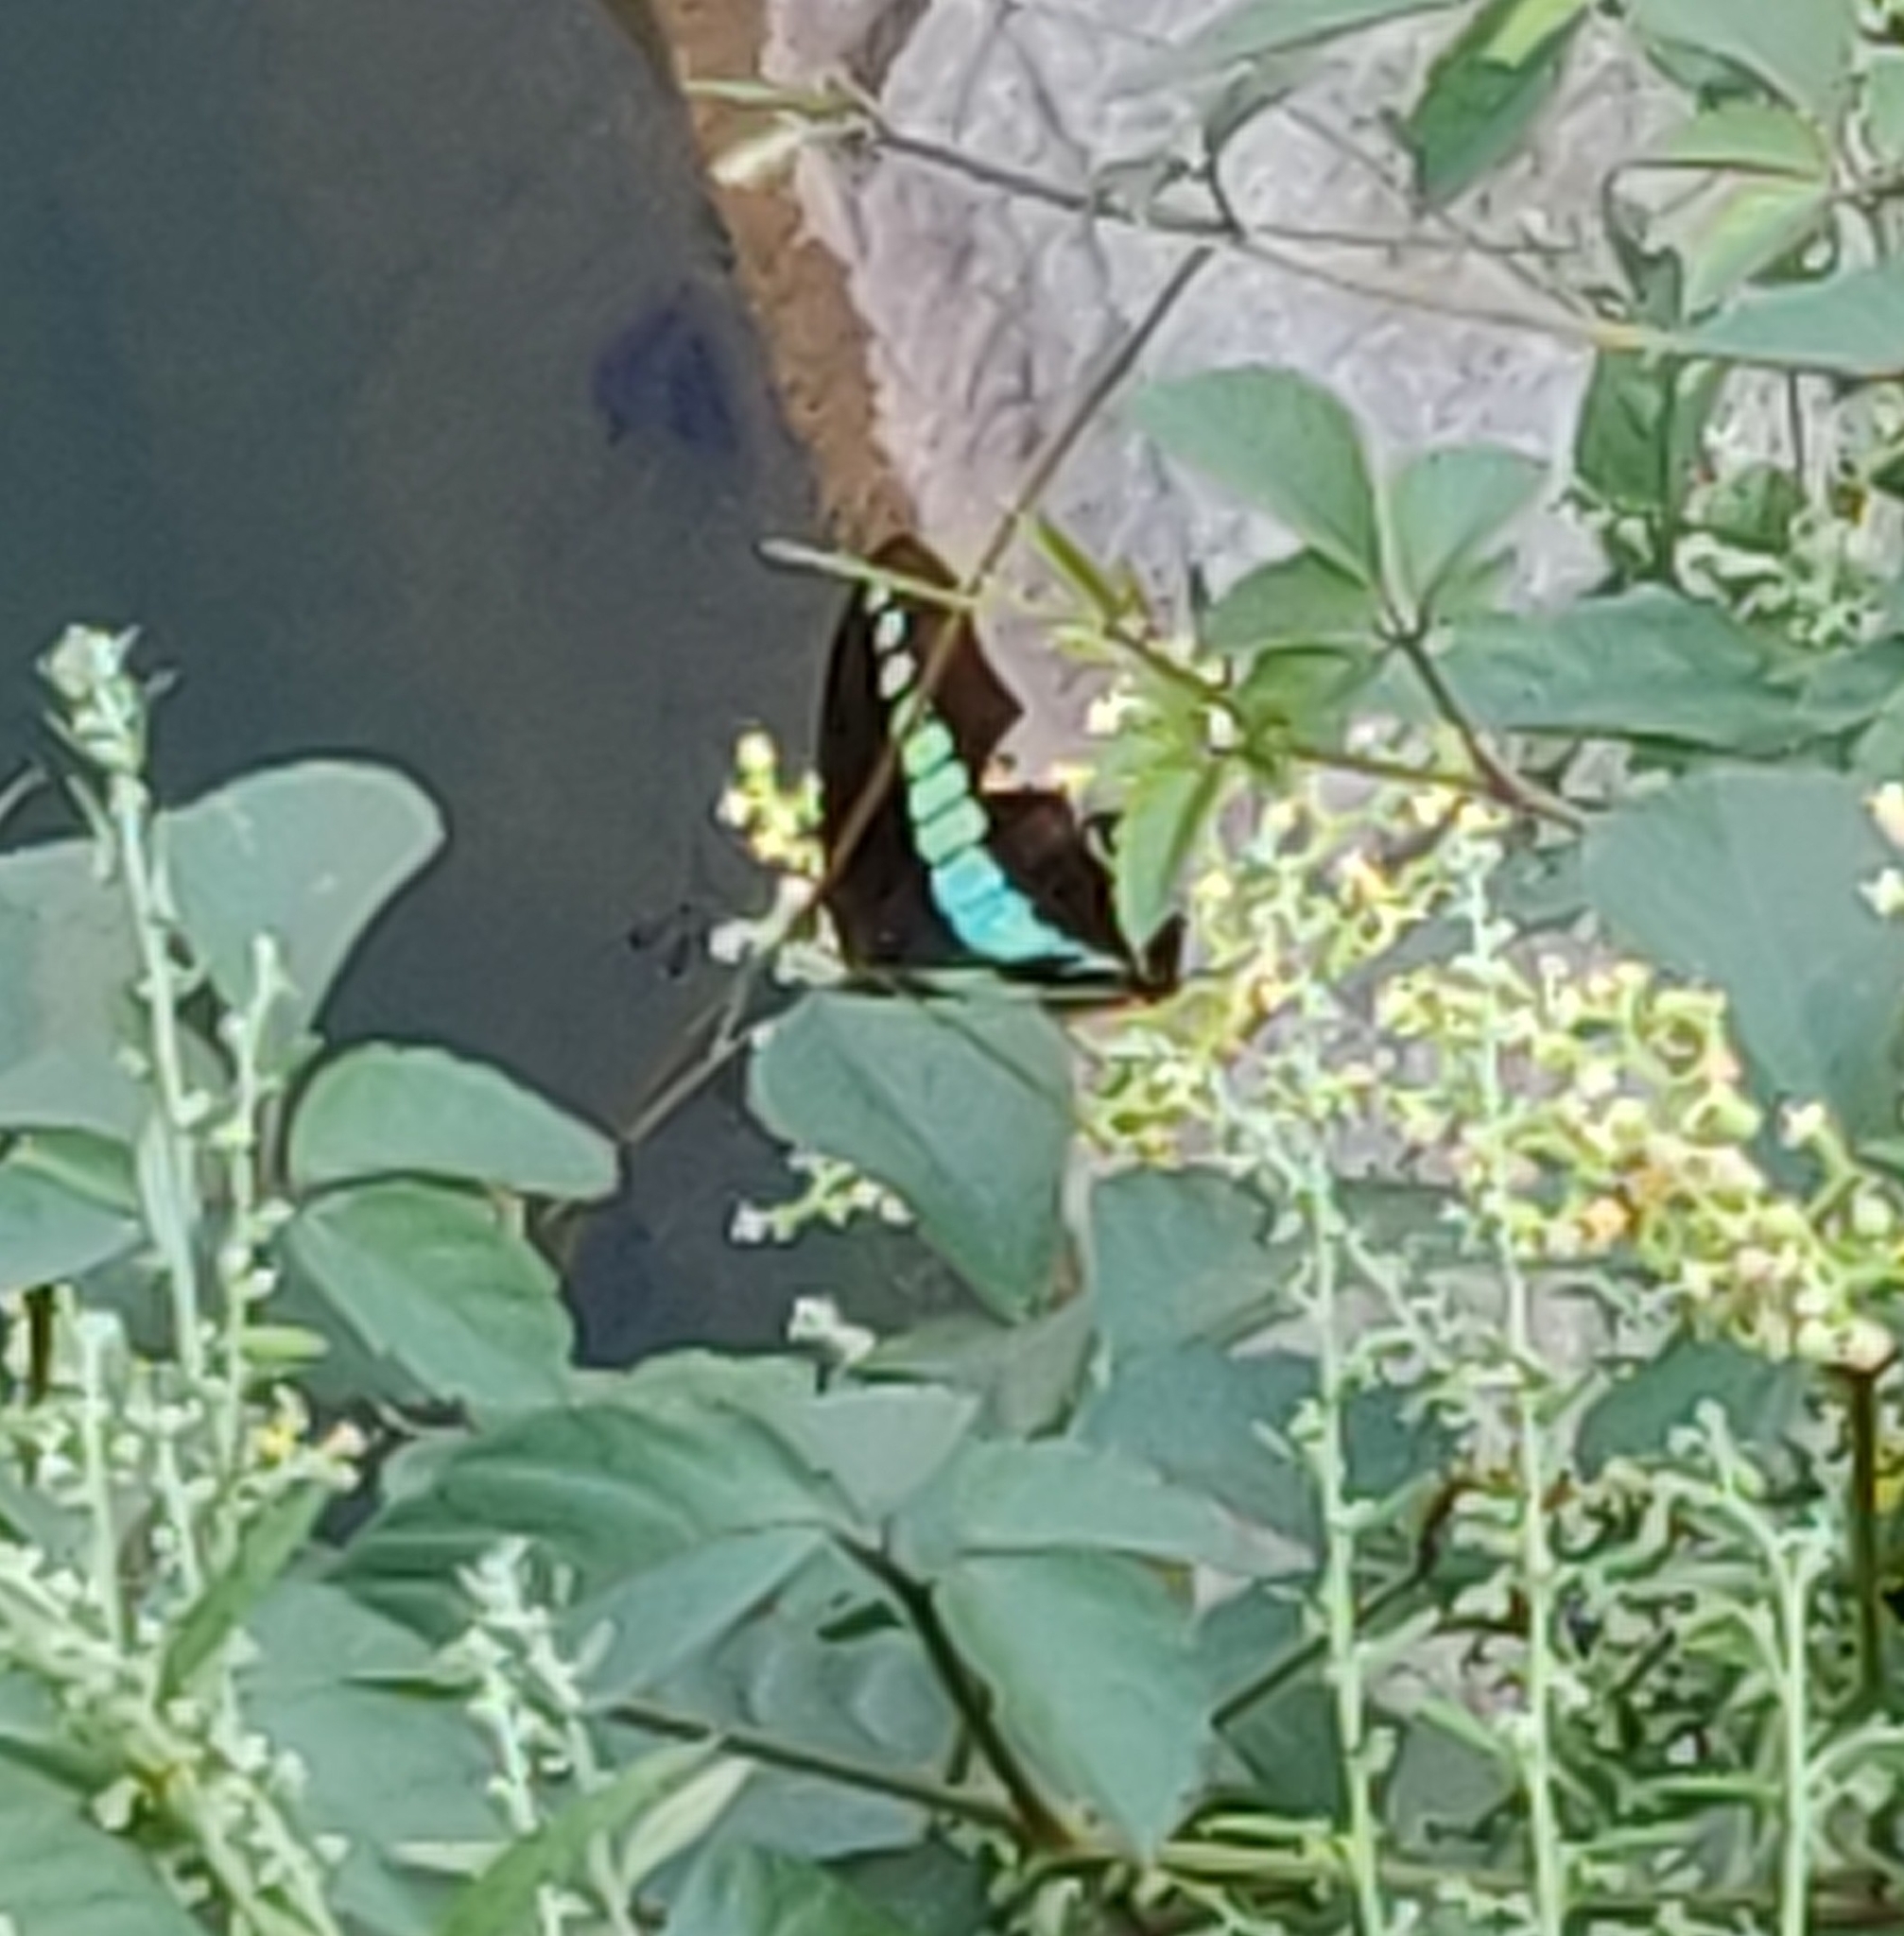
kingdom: Fungi
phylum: Ascomycota
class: Sordariomycetes
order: Microascales
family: Microascaceae
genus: Graphium
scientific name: Graphium sarpedon
